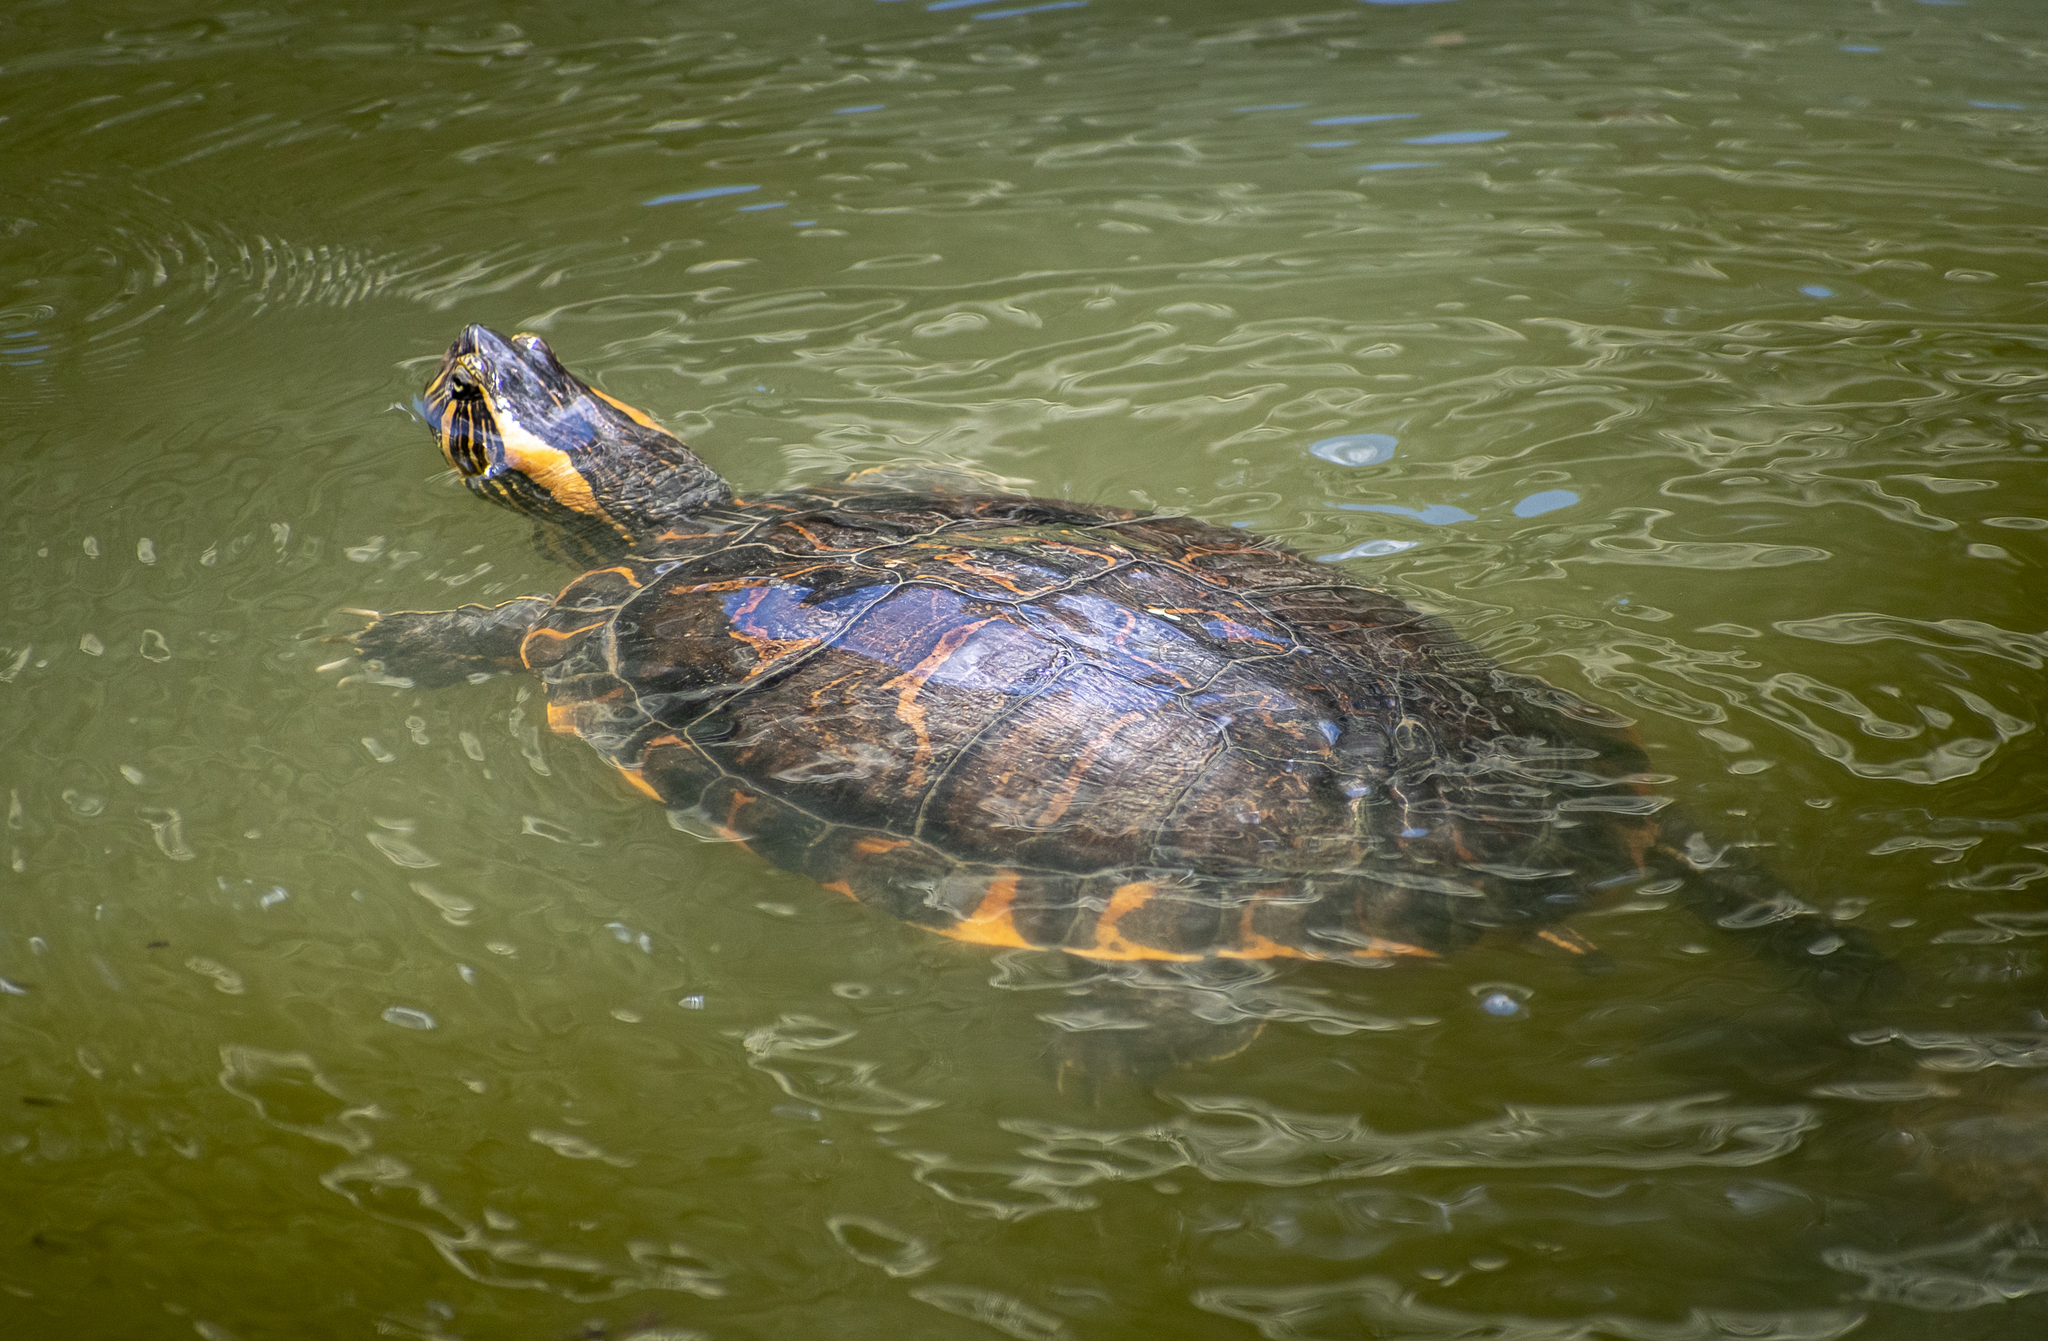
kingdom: Animalia
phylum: Chordata
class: Testudines
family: Emydidae
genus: Trachemys
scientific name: Trachemys dorbigni
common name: Black-bellied slider
